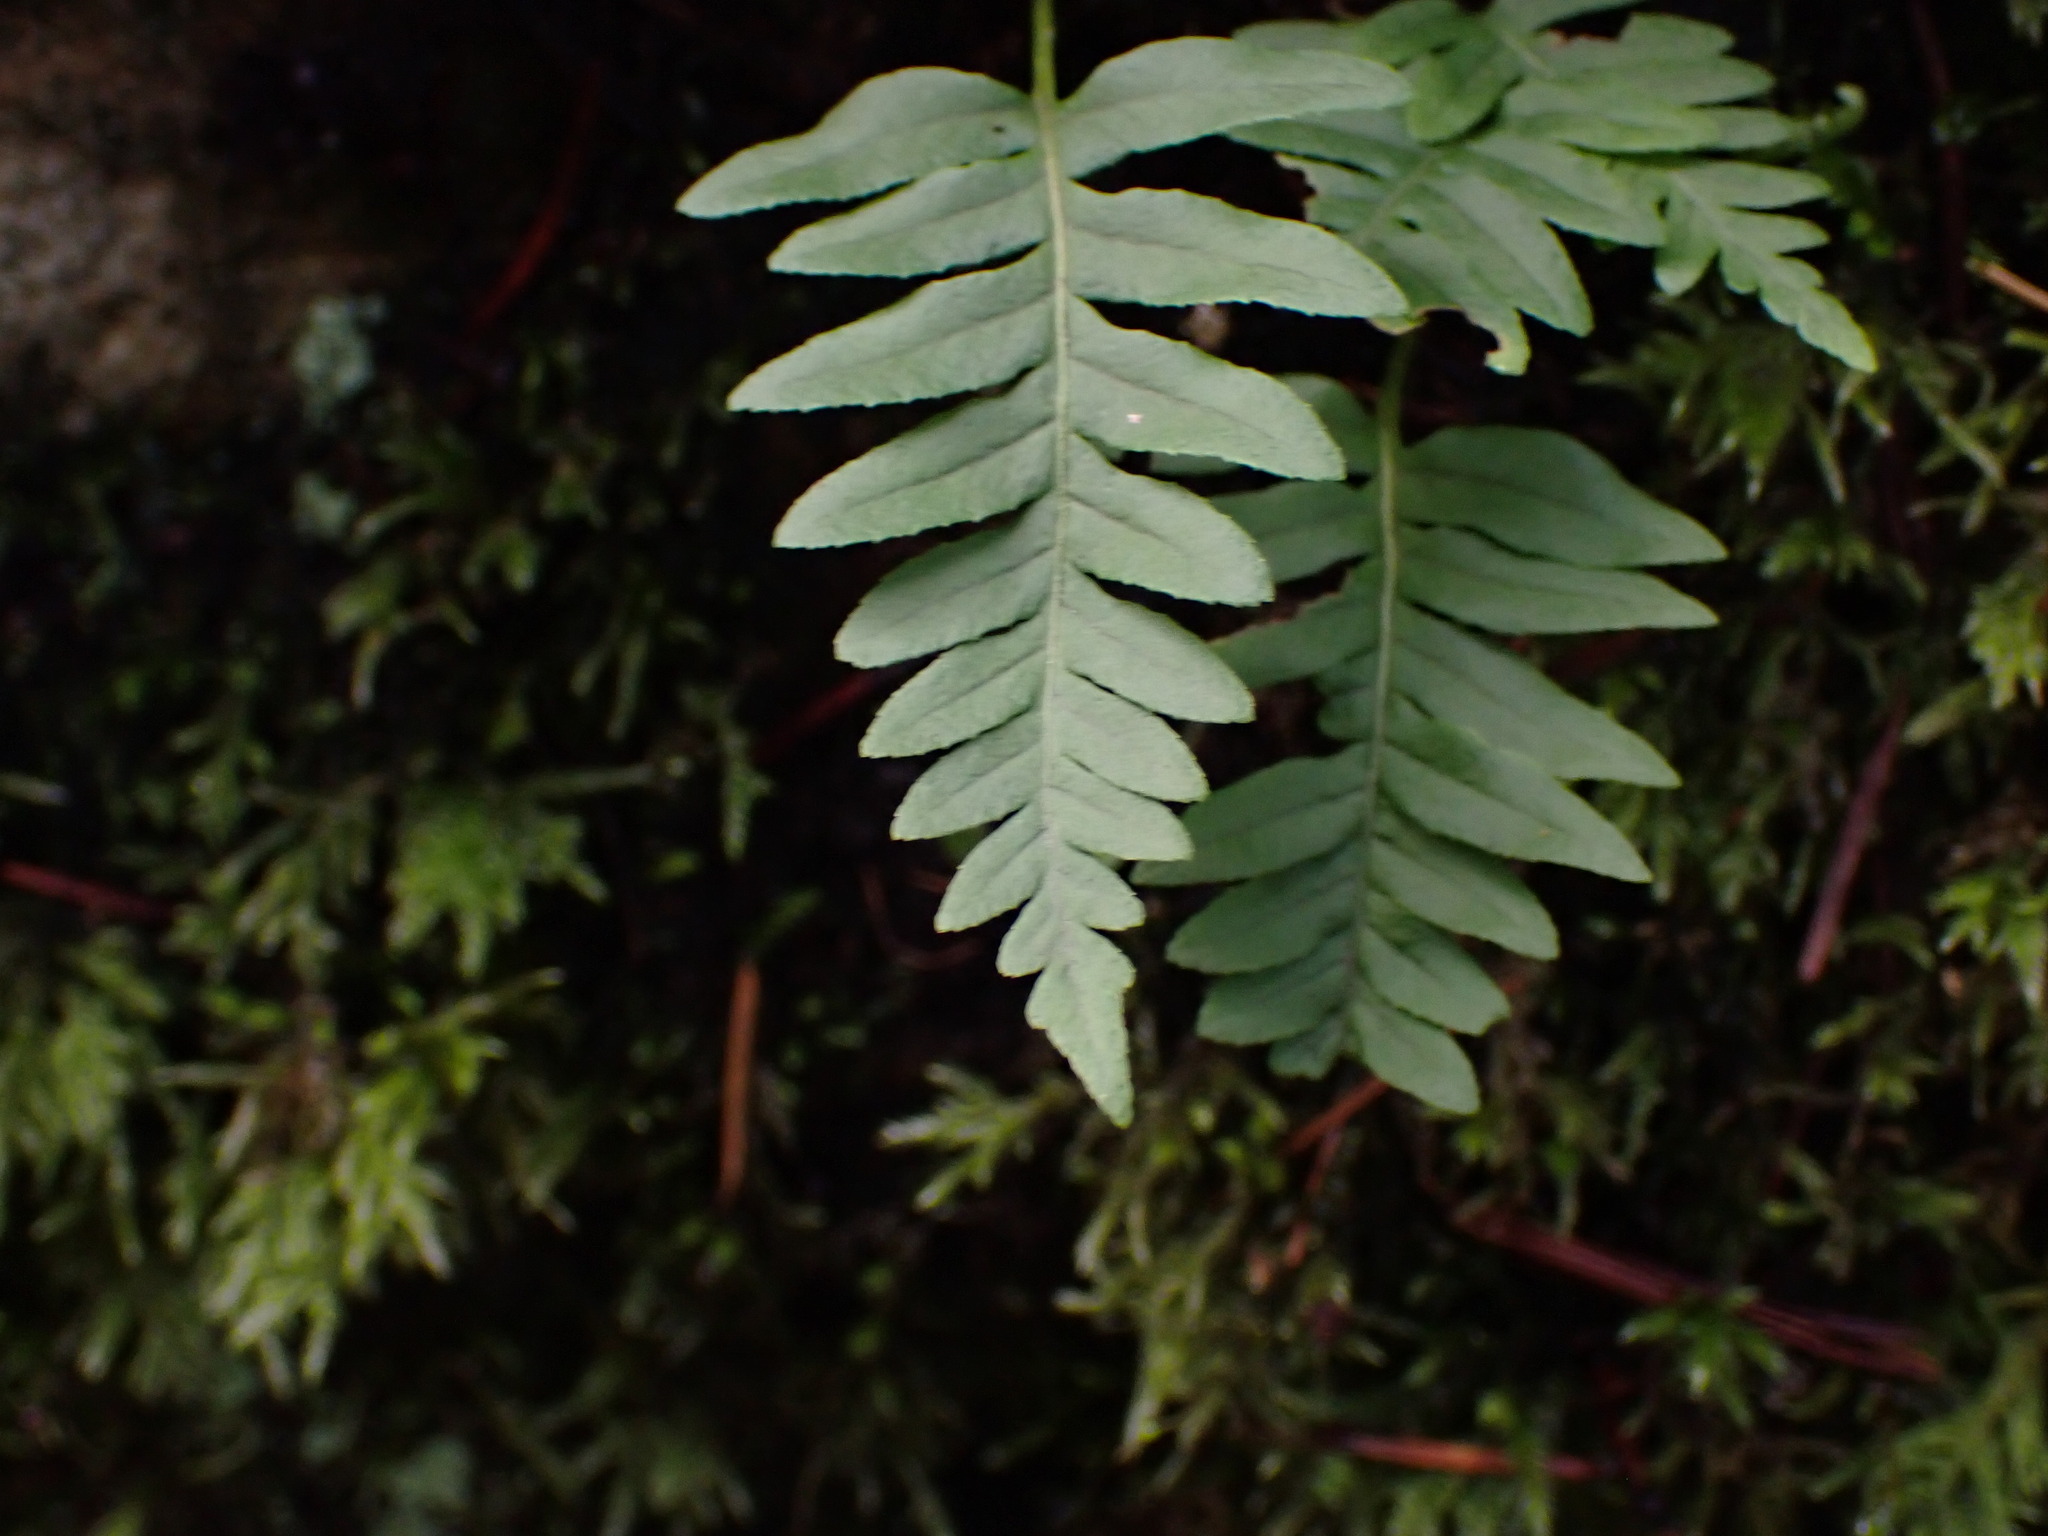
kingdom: Plantae
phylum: Tracheophyta
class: Polypodiopsida
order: Polypodiales
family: Polypodiaceae
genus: Polypodium
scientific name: Polypodium glycyrrhiza
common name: Licorice fern
